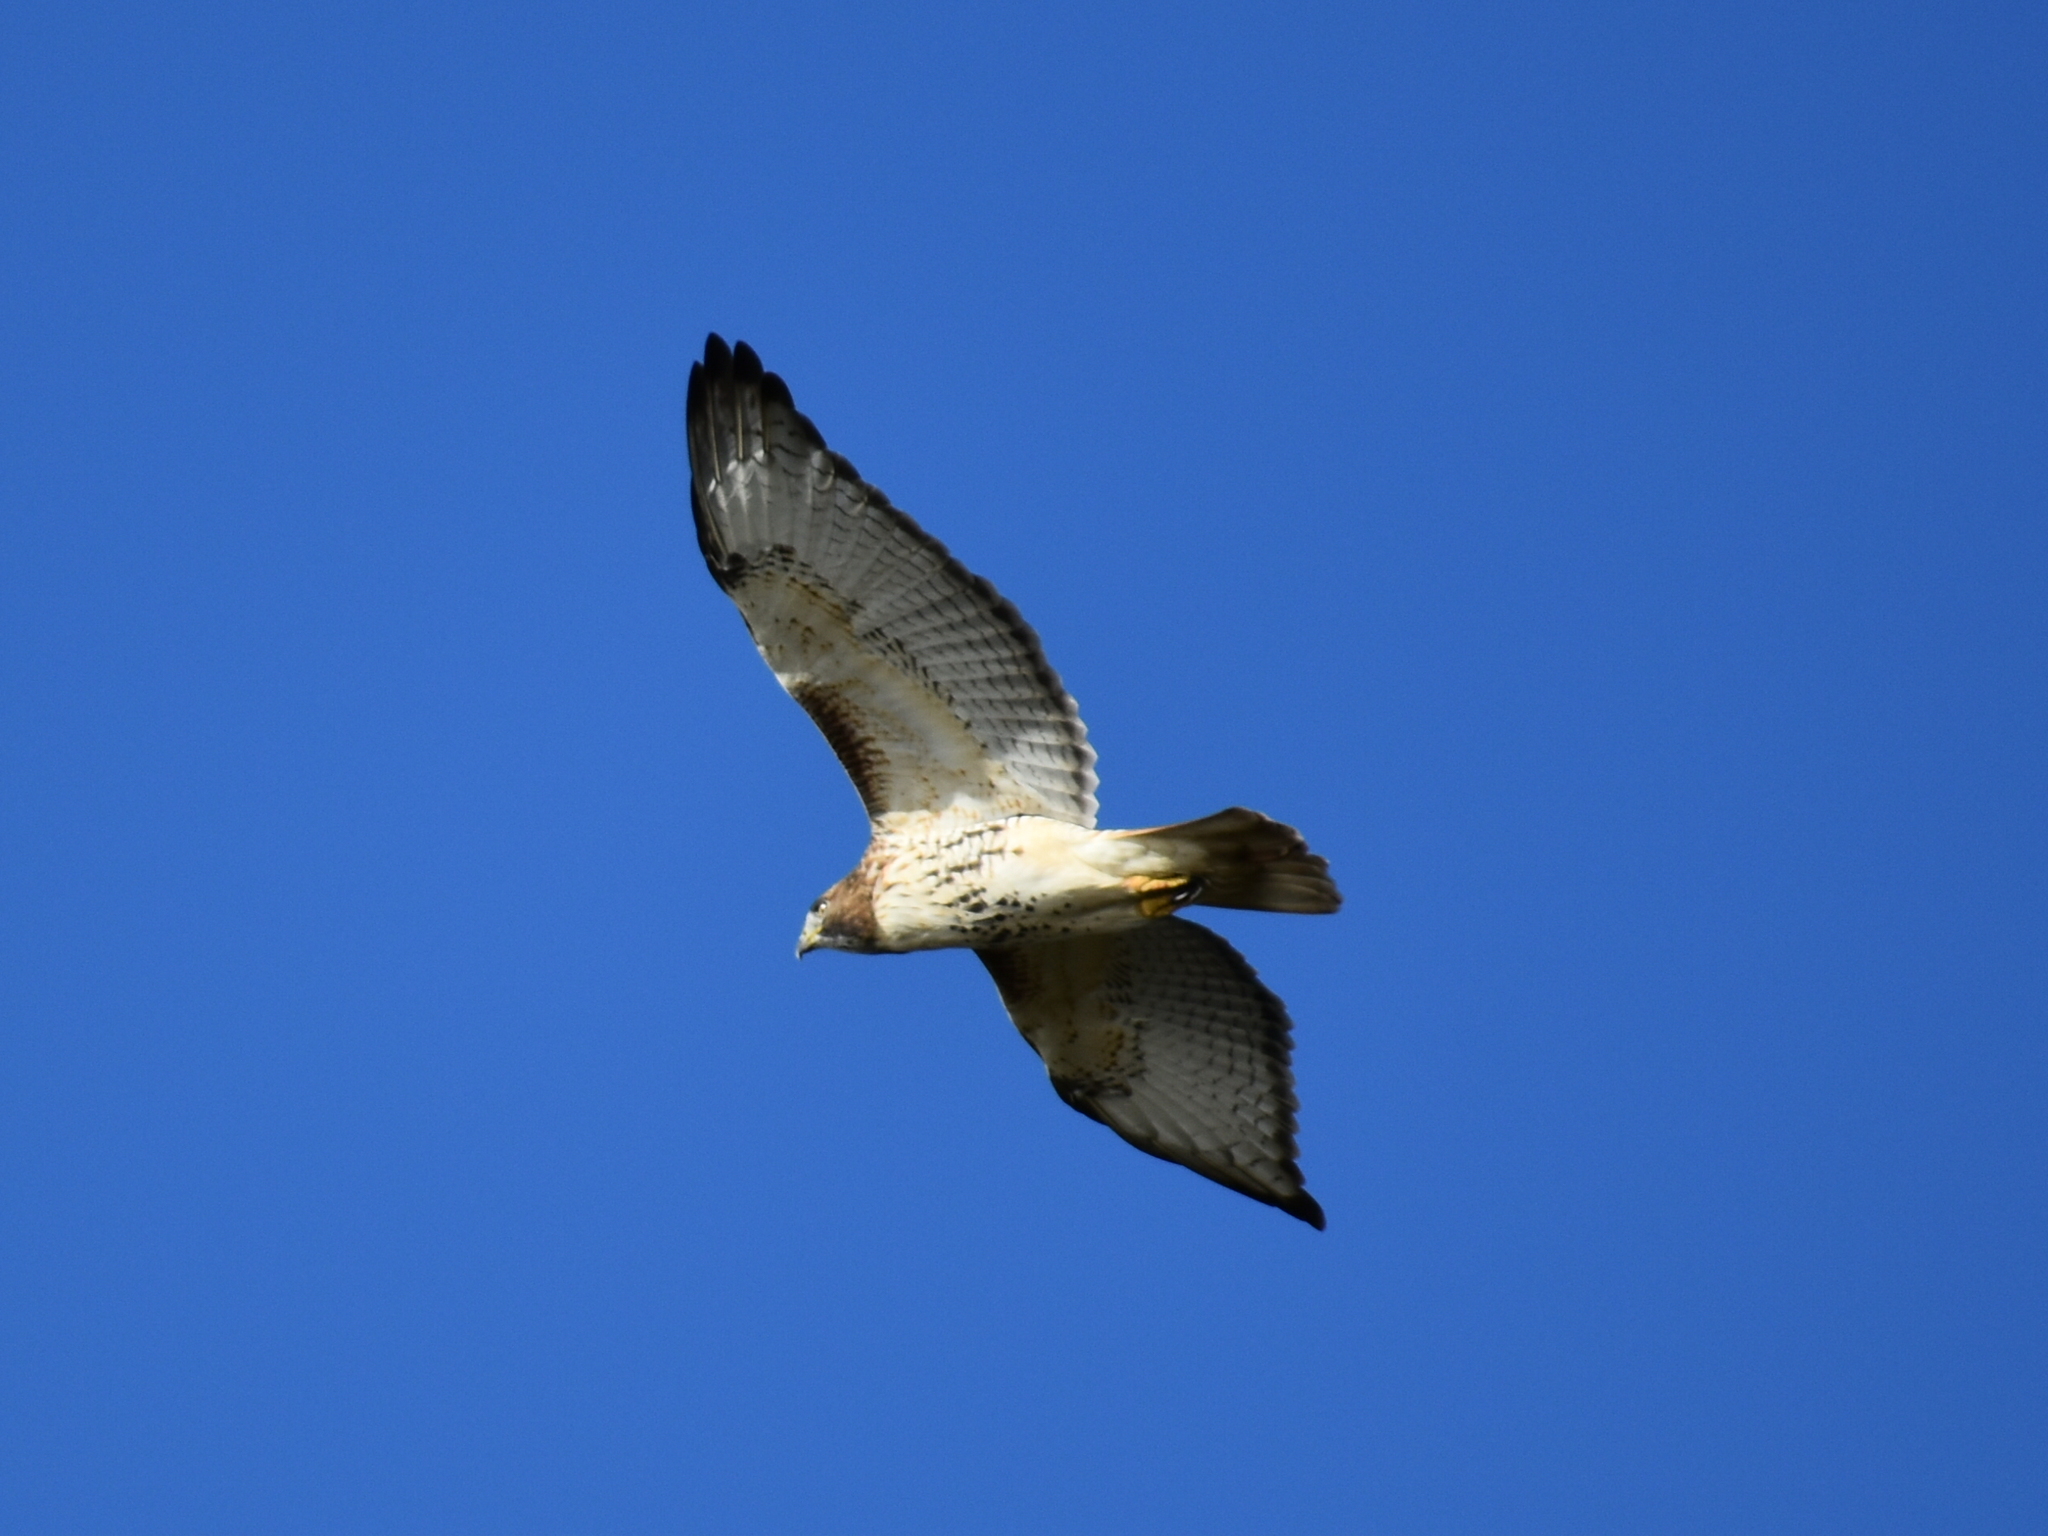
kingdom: Animalia
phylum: Chordata
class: Aves
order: Accipitriformes
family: Accipitridae
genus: Buteo
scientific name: Buteo jamaicensis
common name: Red-tailed hawk
